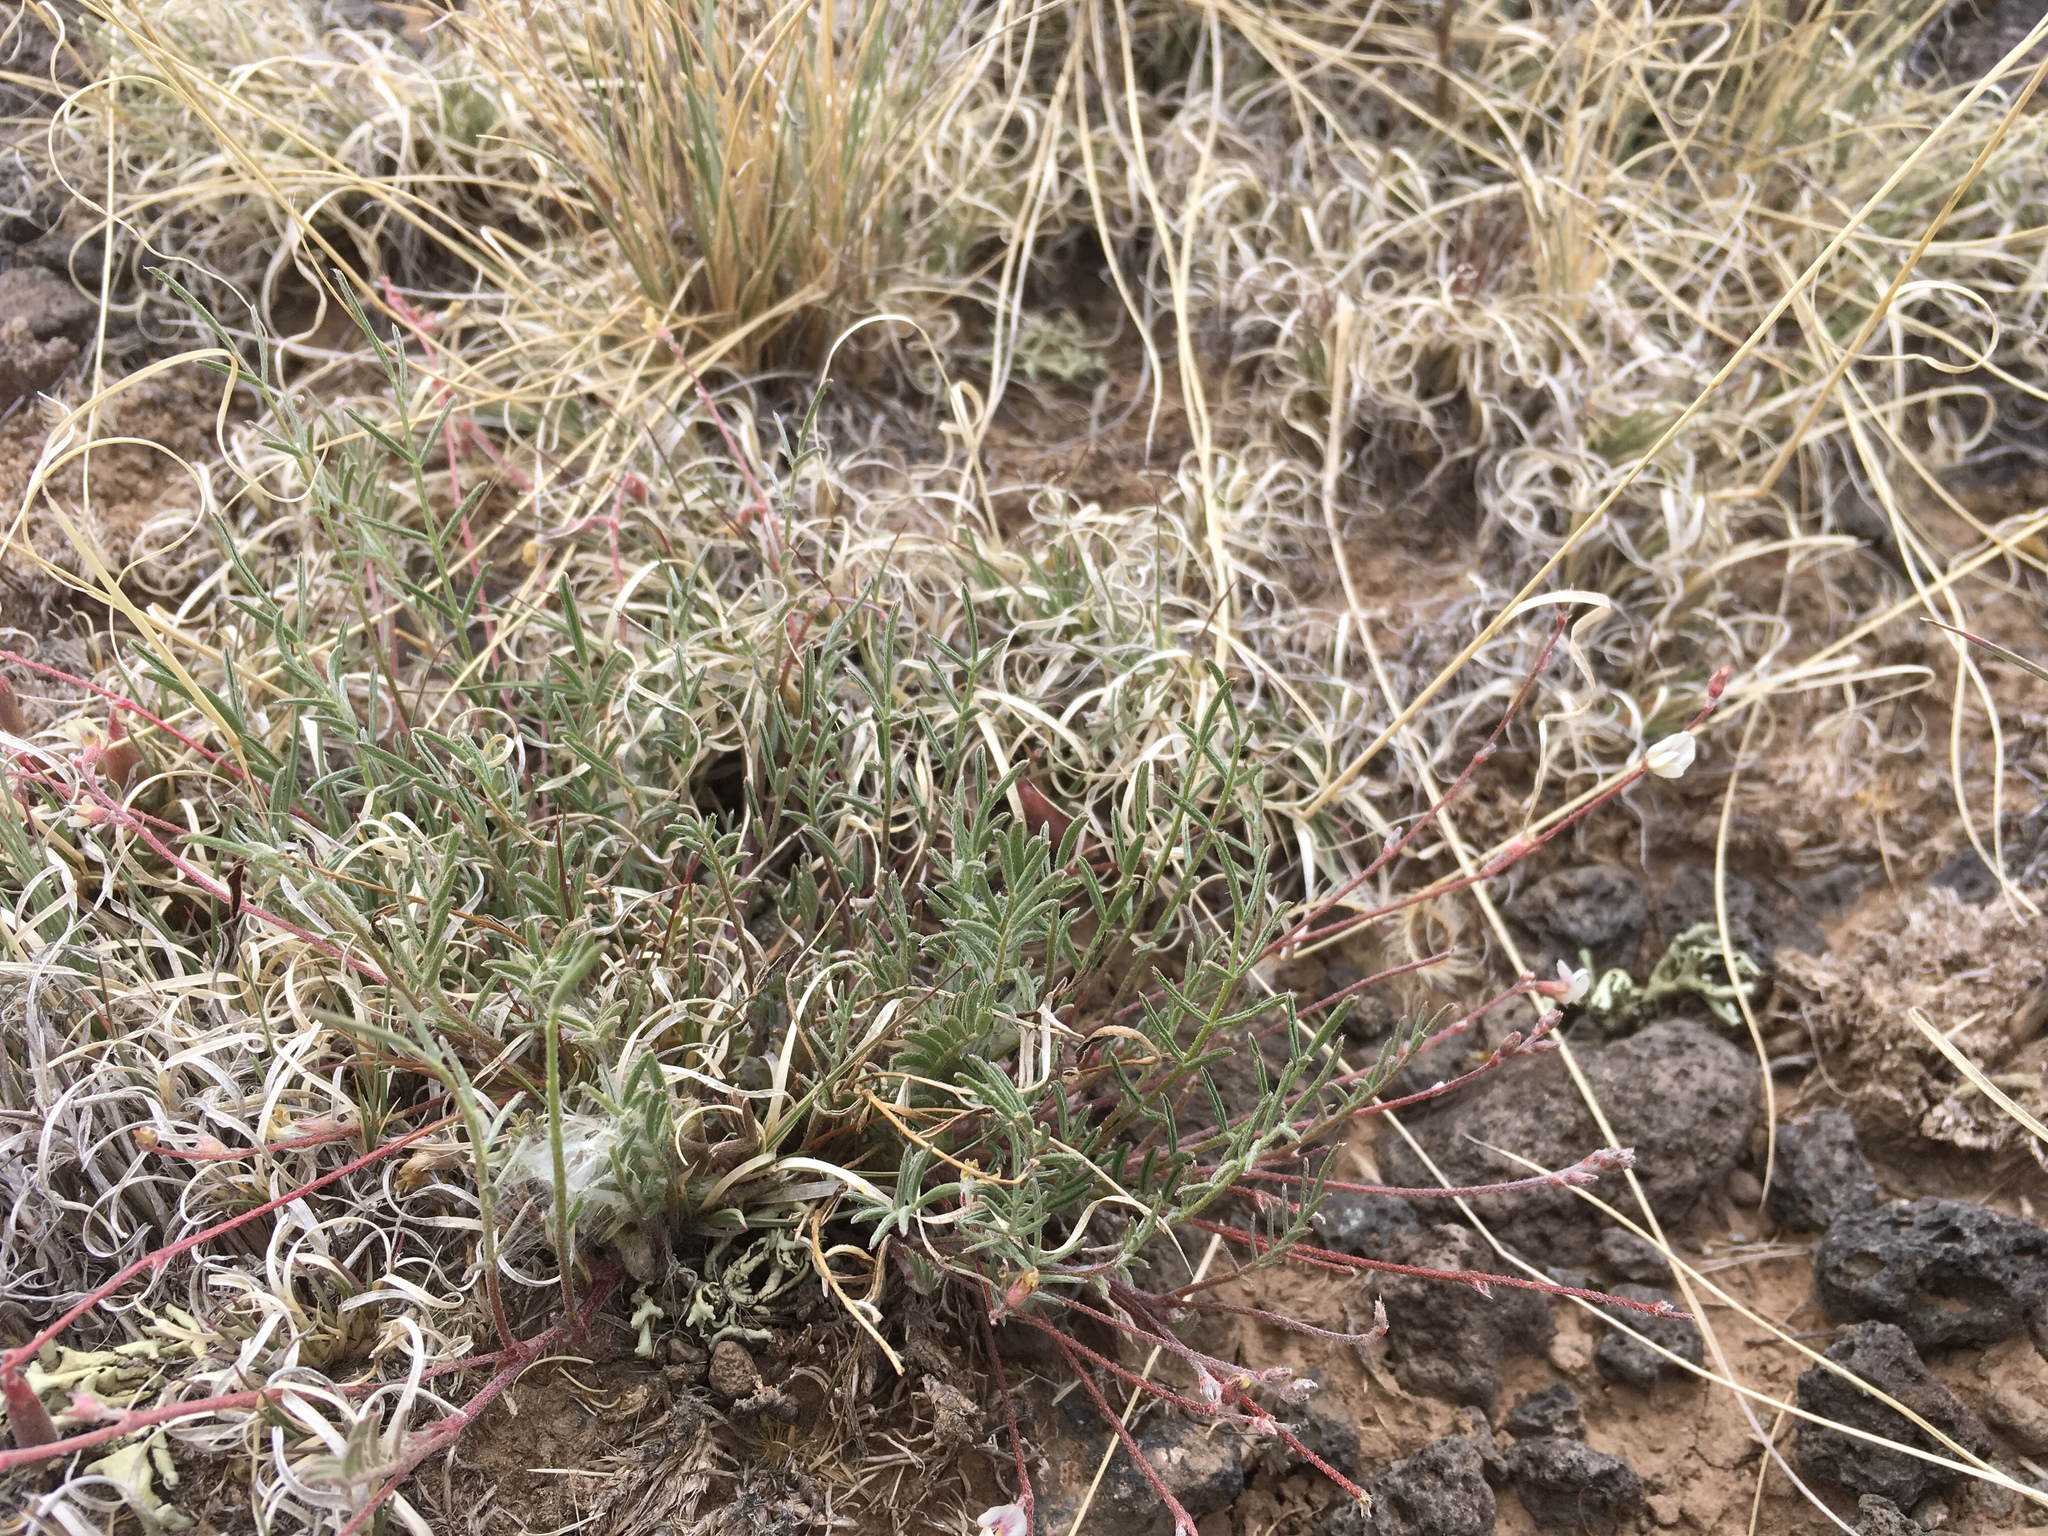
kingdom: Plantae
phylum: Tracheophyta
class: Magnoliopsida
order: Fabales
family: Fabaceae
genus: Astragalus
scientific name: Astragalus brandegeei
